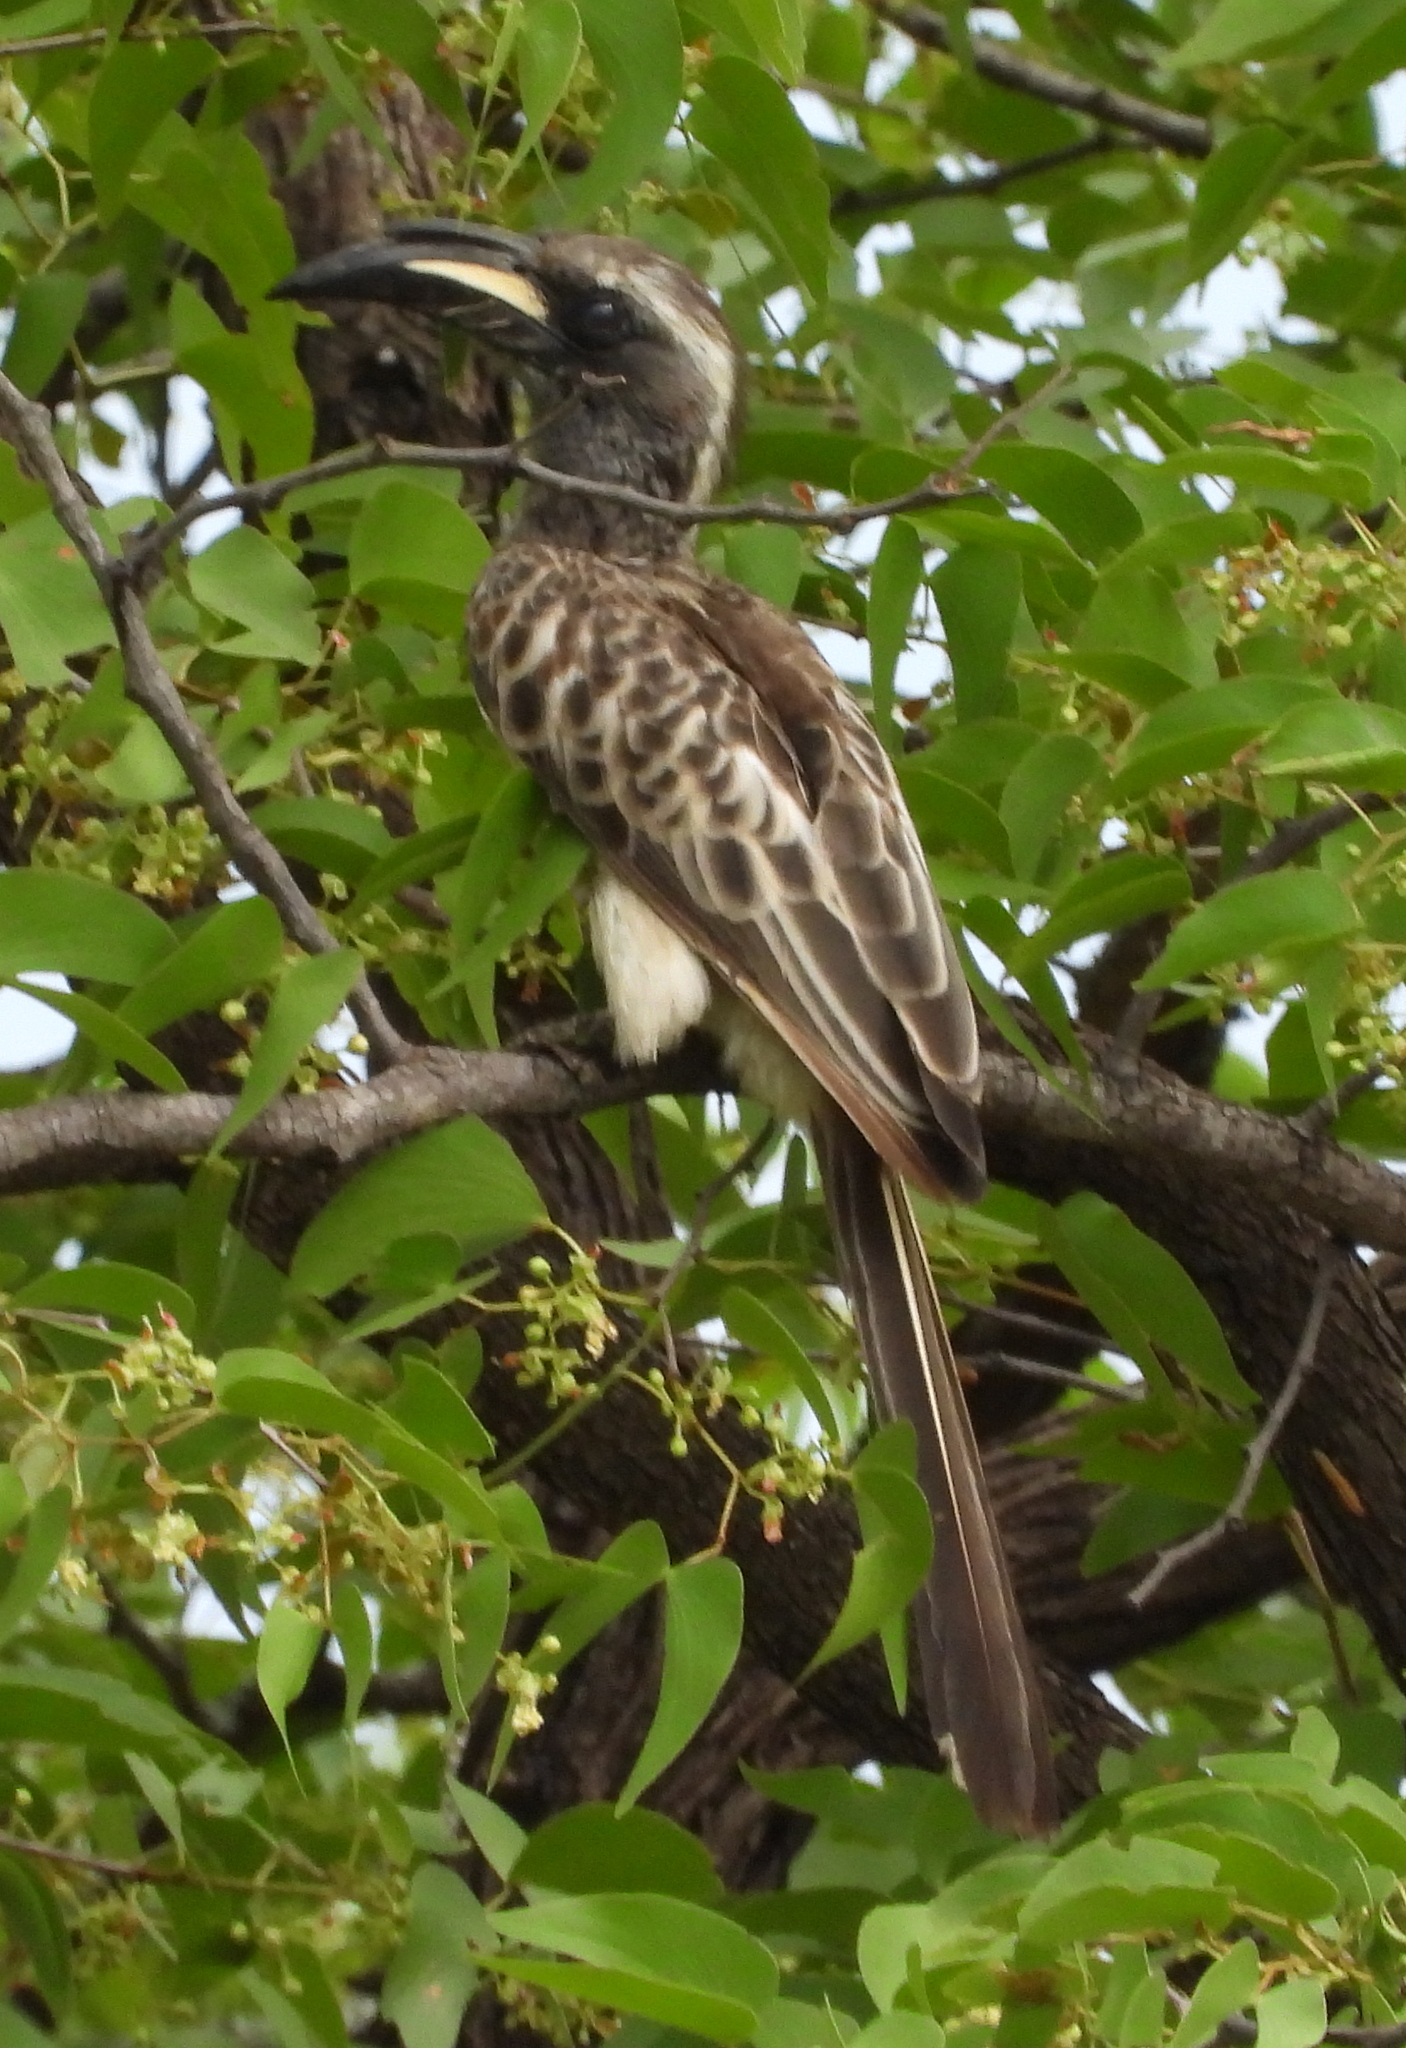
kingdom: Animalia
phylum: Chordata
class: Aves
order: Bucerotiformes
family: Bucerotidae
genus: Lophoceros
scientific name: Lophoceros nasutus
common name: African grey hornbill
